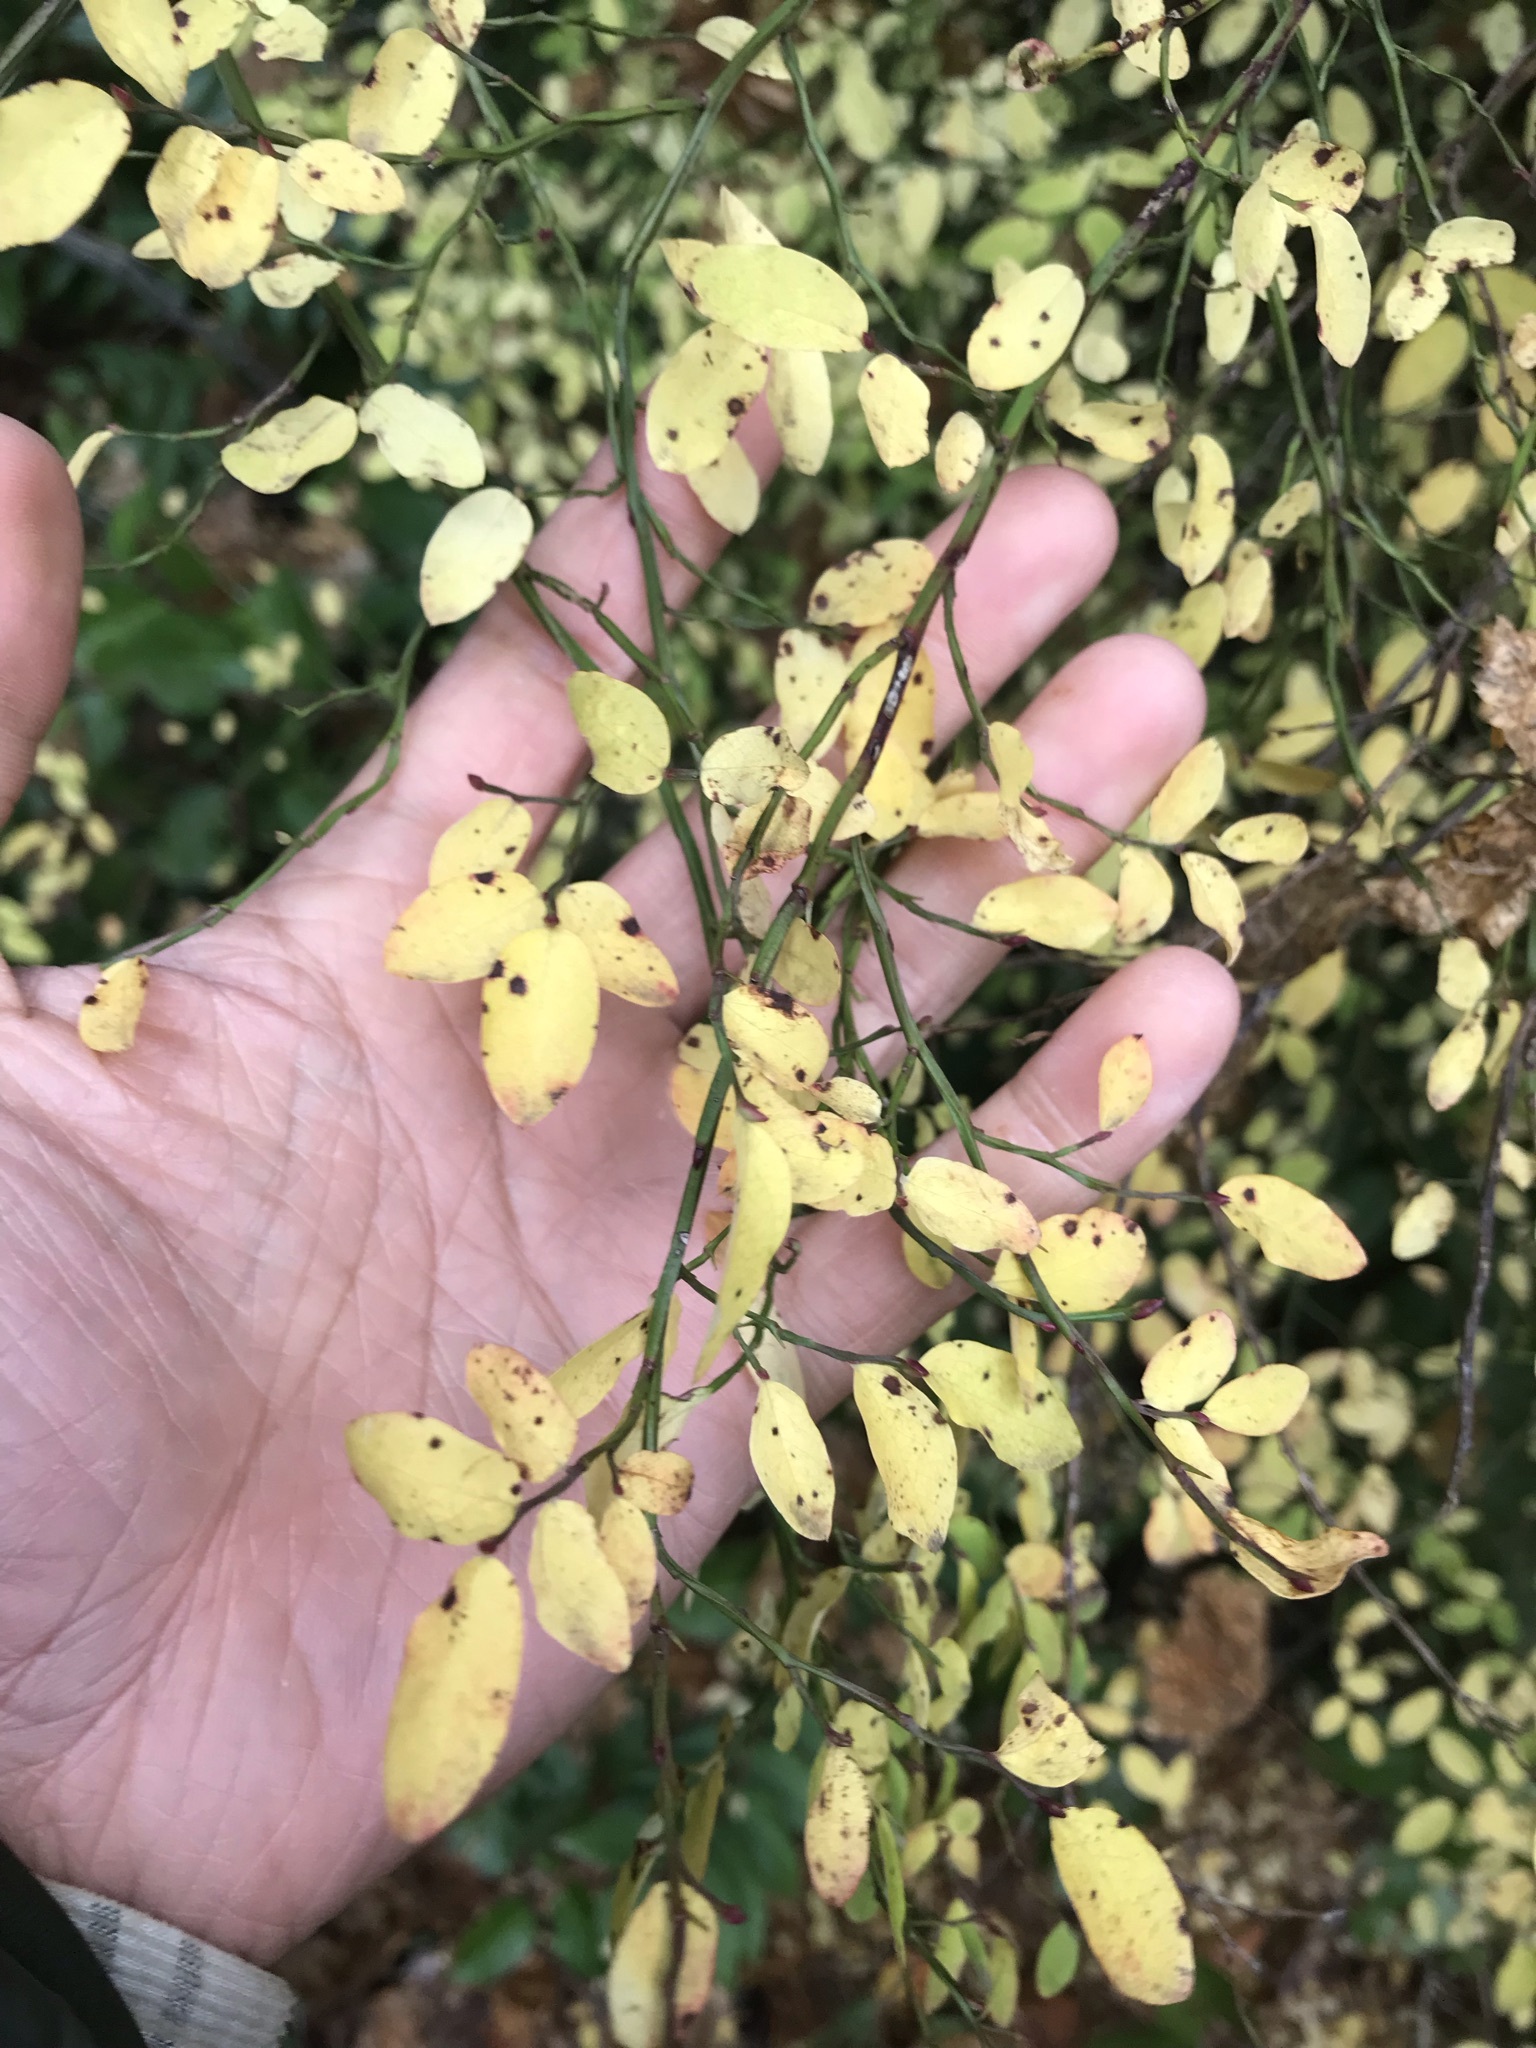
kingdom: Plantae
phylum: Tracheophyta
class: Magnoliopsida
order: Ericales
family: Ericaceae
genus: Vaccinium
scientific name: Vaccinium parvifolium
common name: Red-huckleberry
